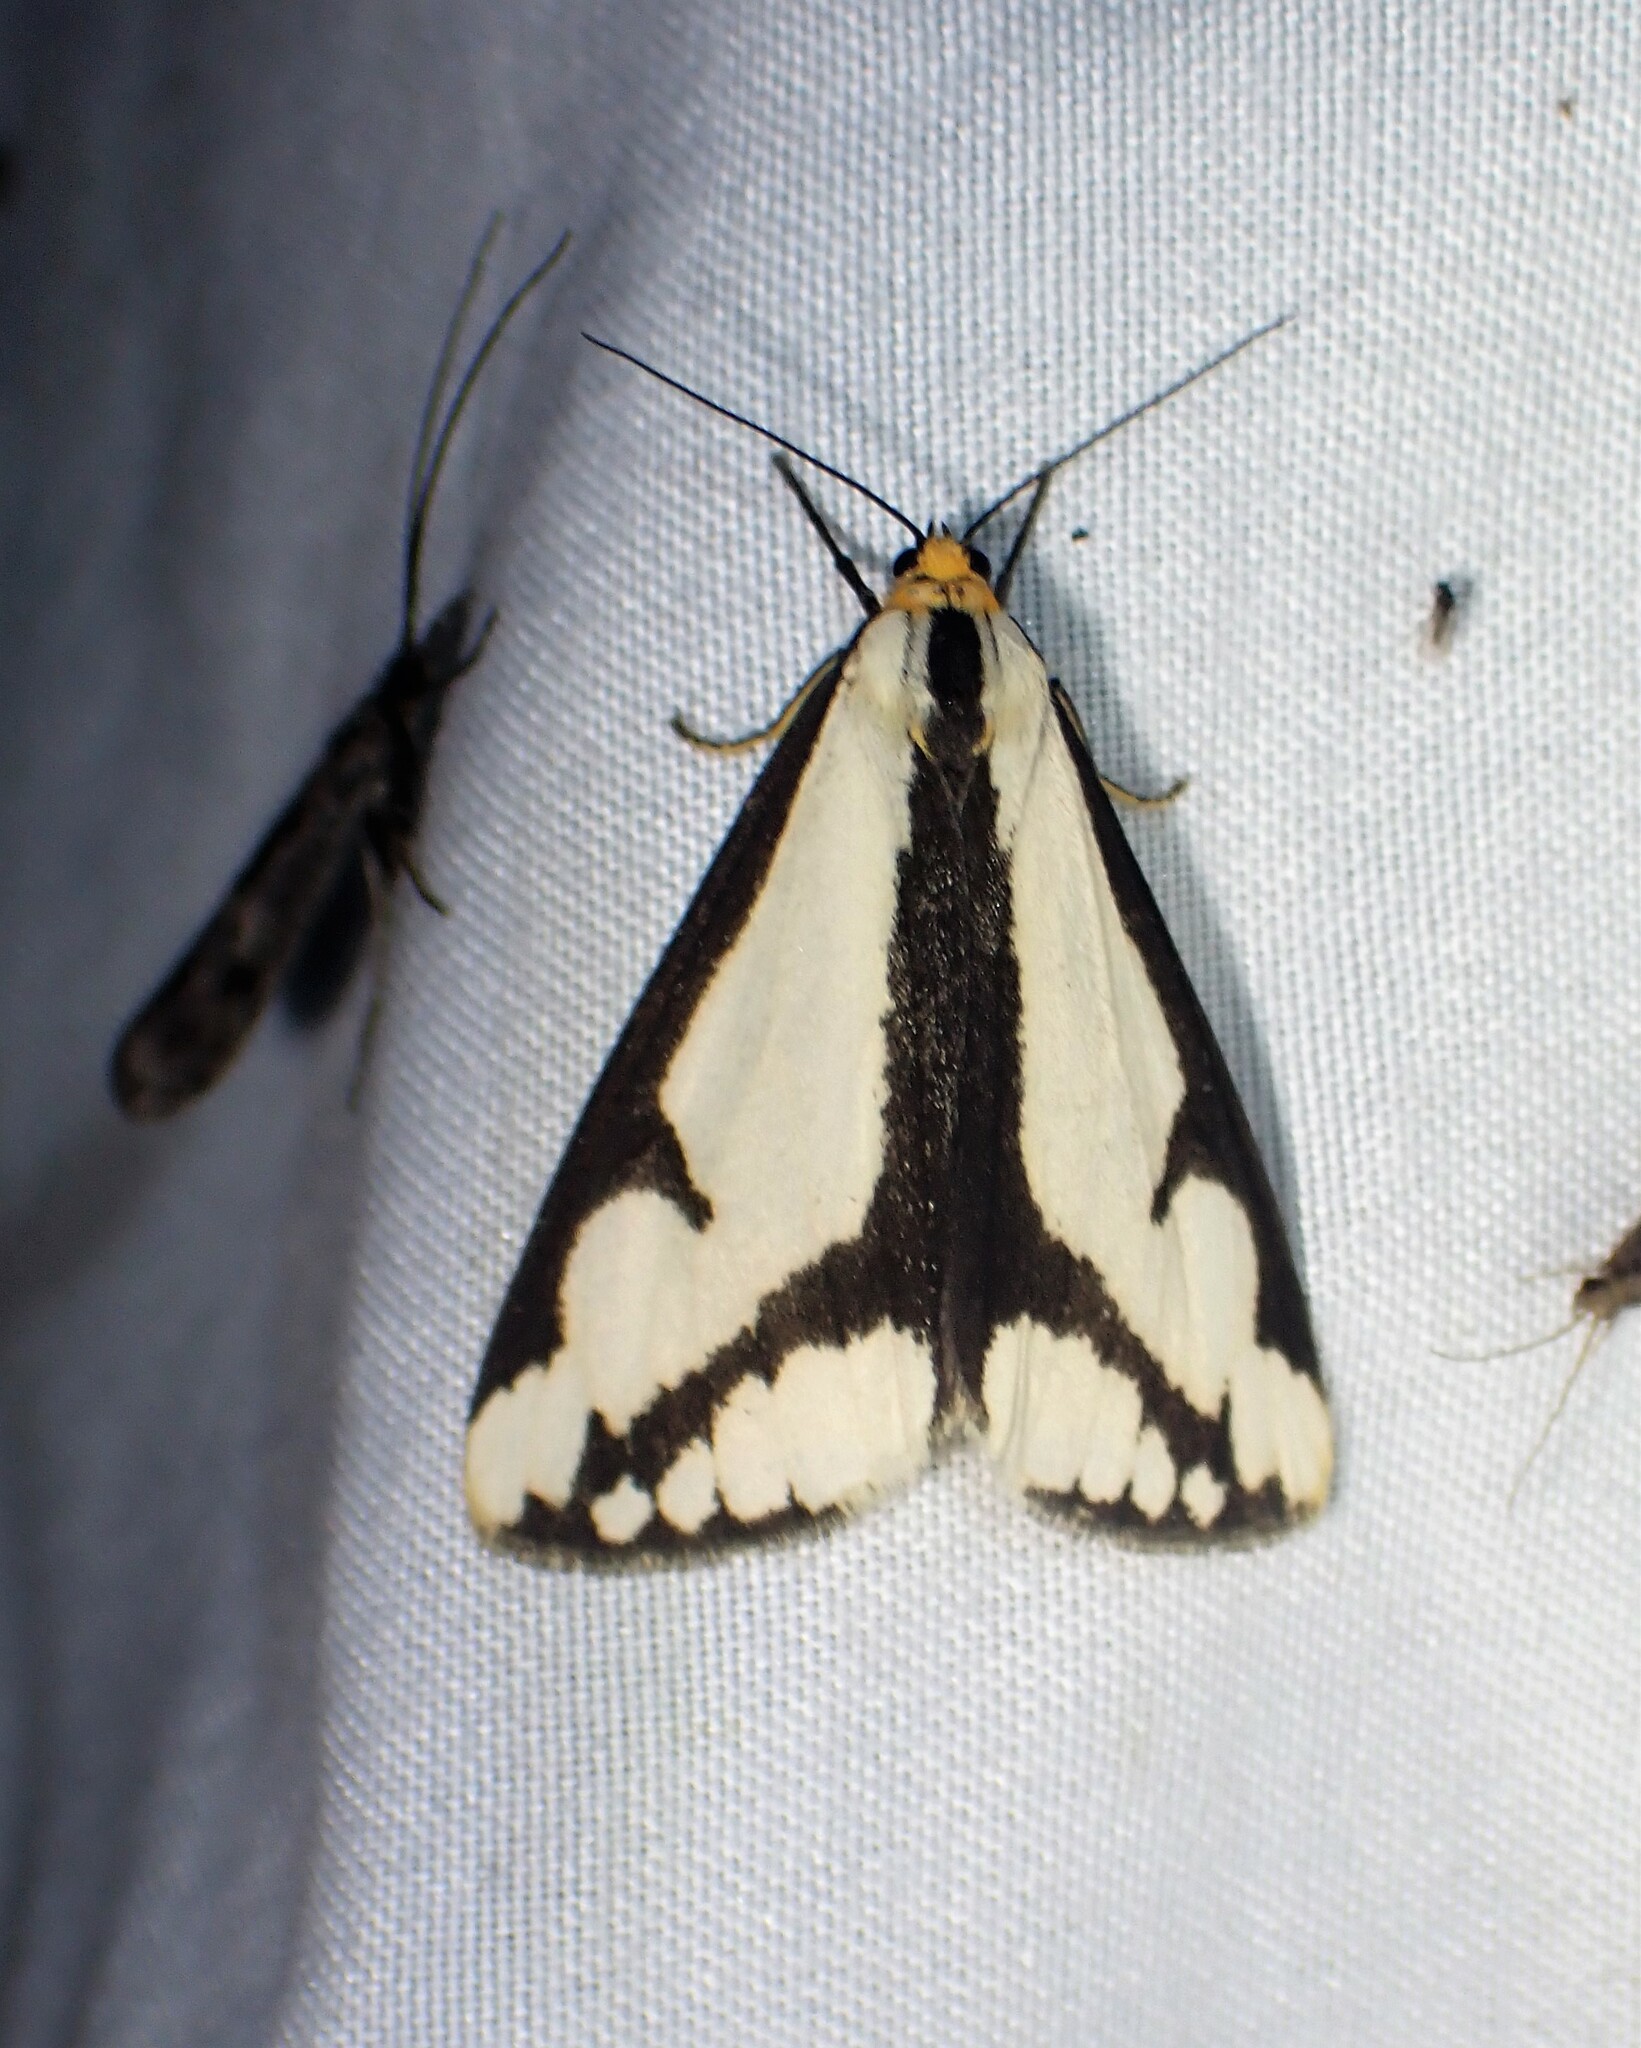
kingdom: Animalia
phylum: Arthropoda
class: Insecta
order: Lepidoptera
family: Erebidae
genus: Haploa
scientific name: Haploa lecontei
